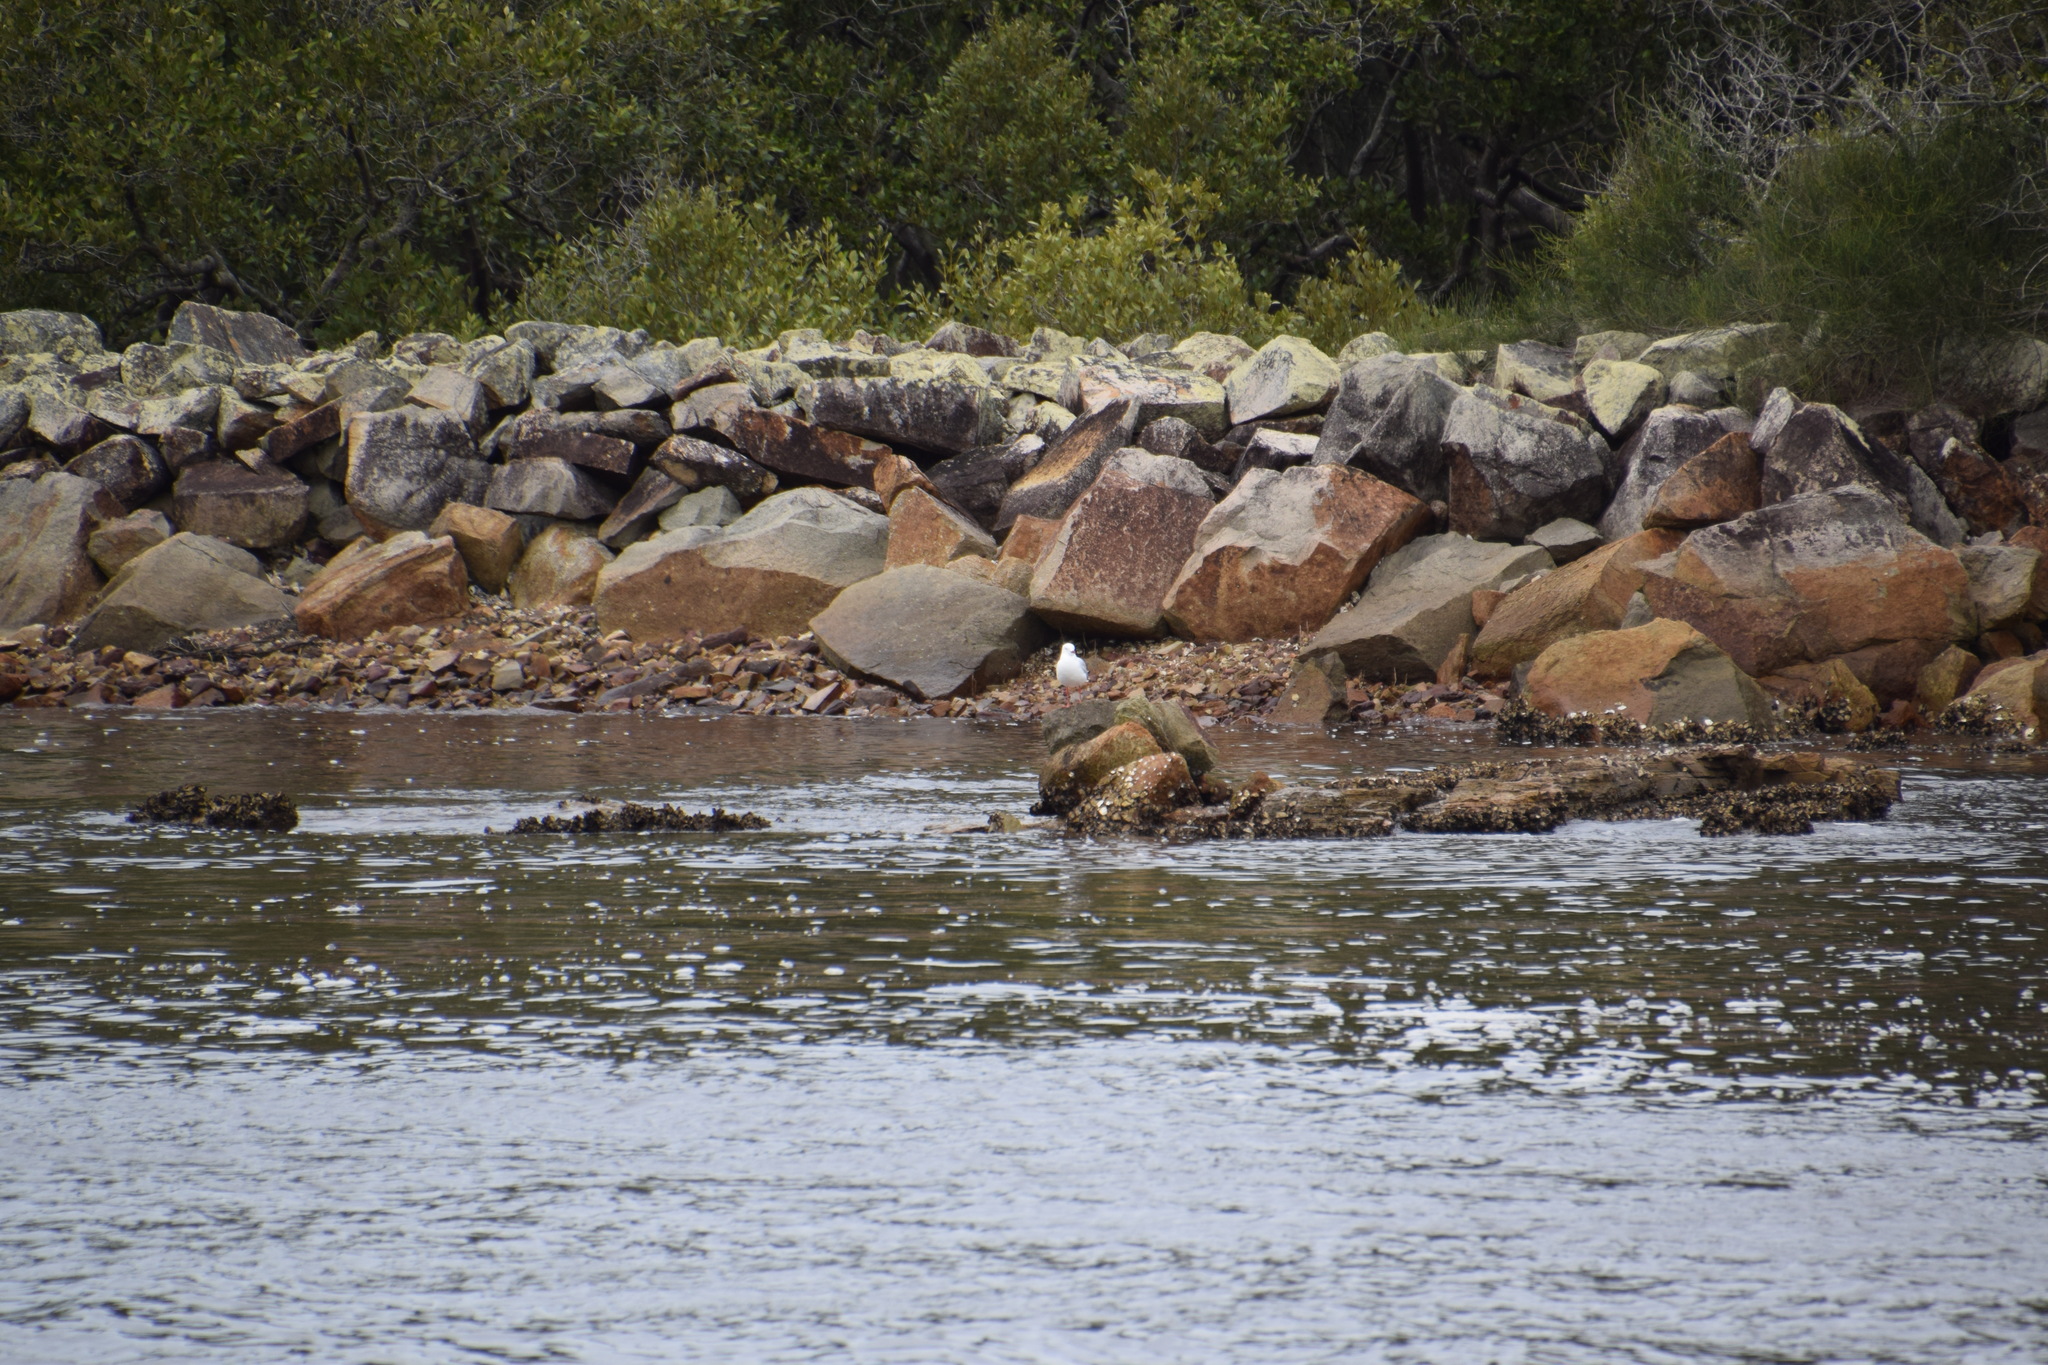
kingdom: Animalia
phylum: Chordata
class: Aves
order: Charadriiformes
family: Laridae
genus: Chroicocephalus
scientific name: Chroicocephalus novaehollandiae
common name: Silver gull
